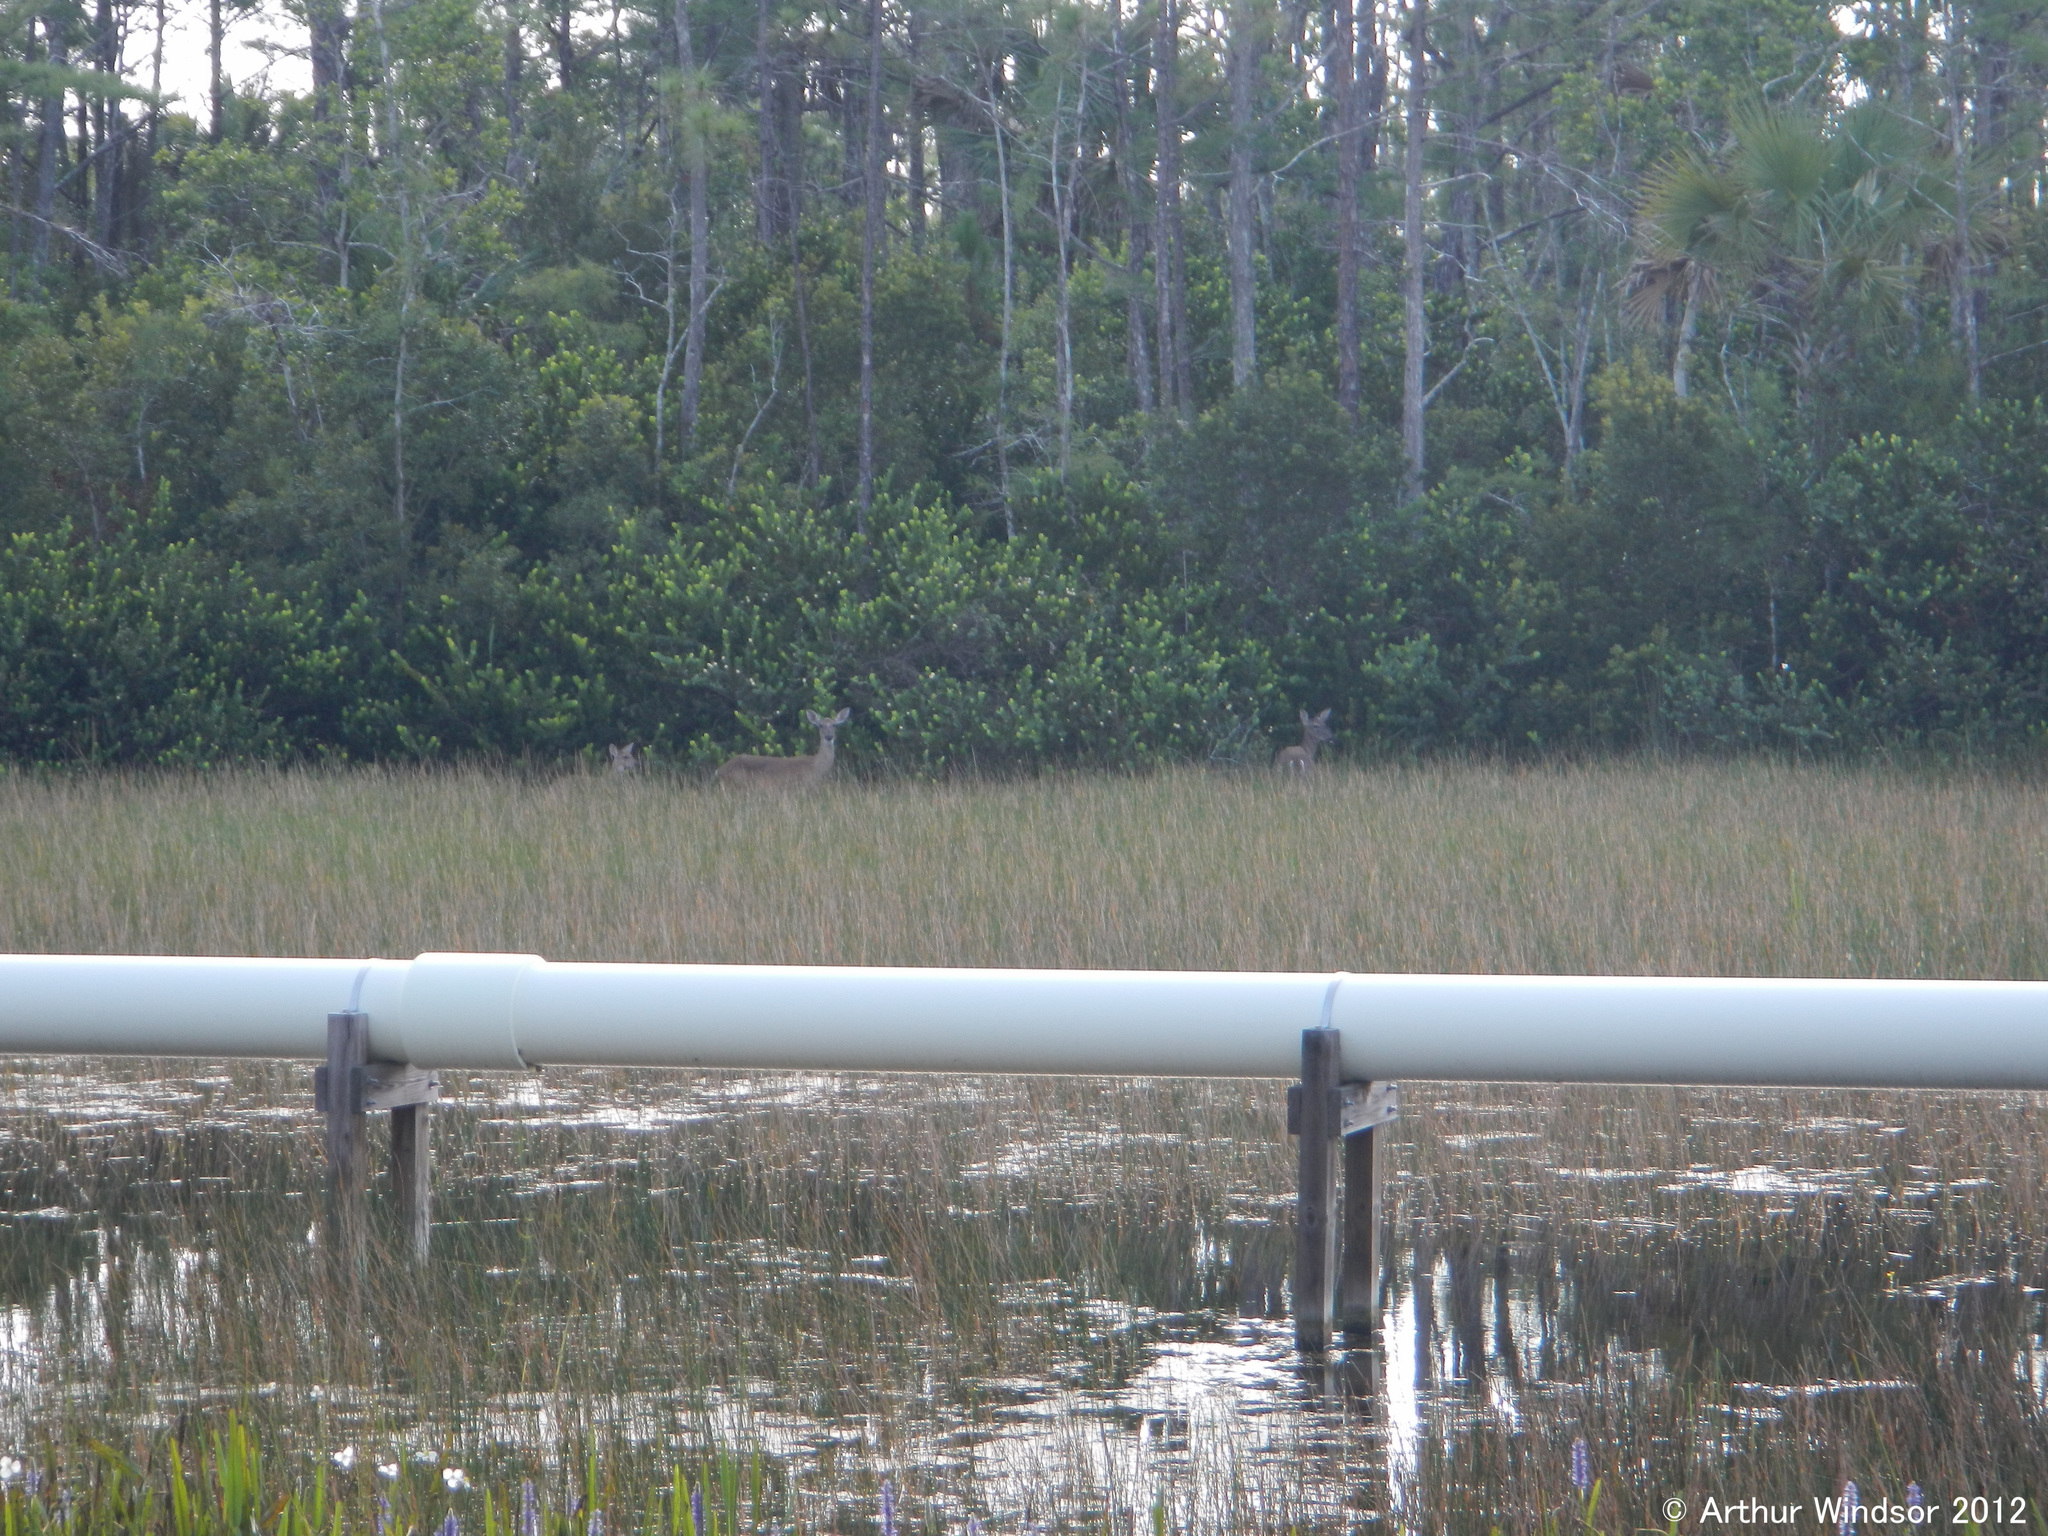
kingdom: Animalia
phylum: Chordata
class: Mammalia
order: Artiodactyla
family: Cervidae
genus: Odocoileus
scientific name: Odocoileus virginianus
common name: White-tailed deer
